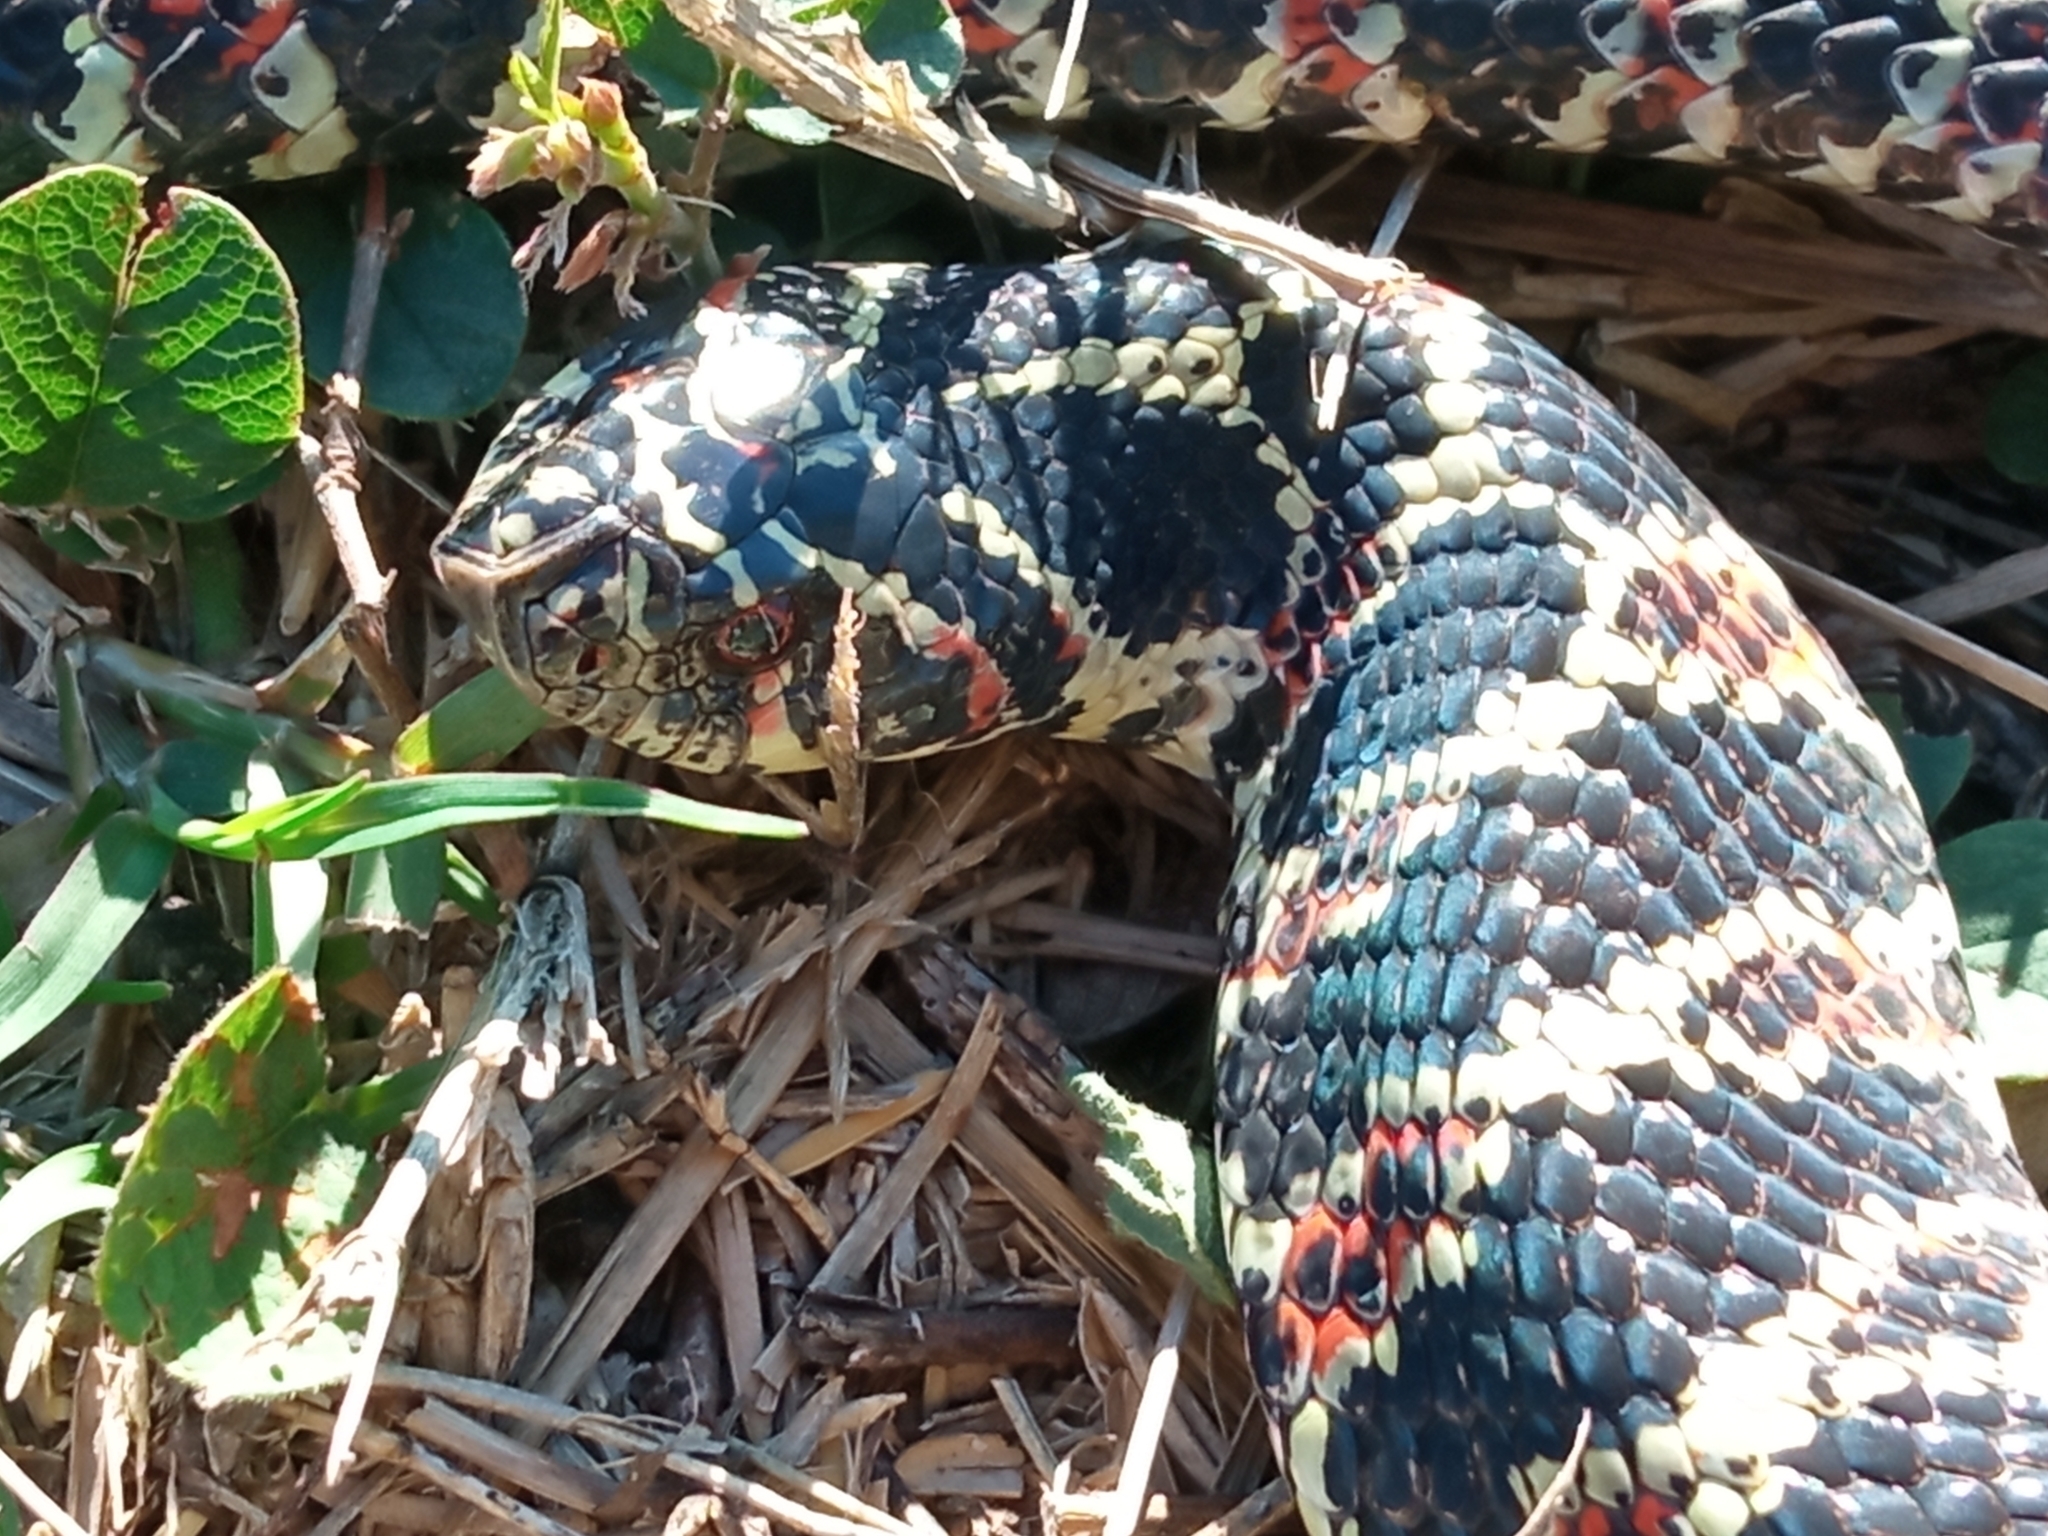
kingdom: Animalia
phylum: Chordata
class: Squamata
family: Colubridae
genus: Xenodon
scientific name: Xenodon dorbignyi
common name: South american hognose snake
